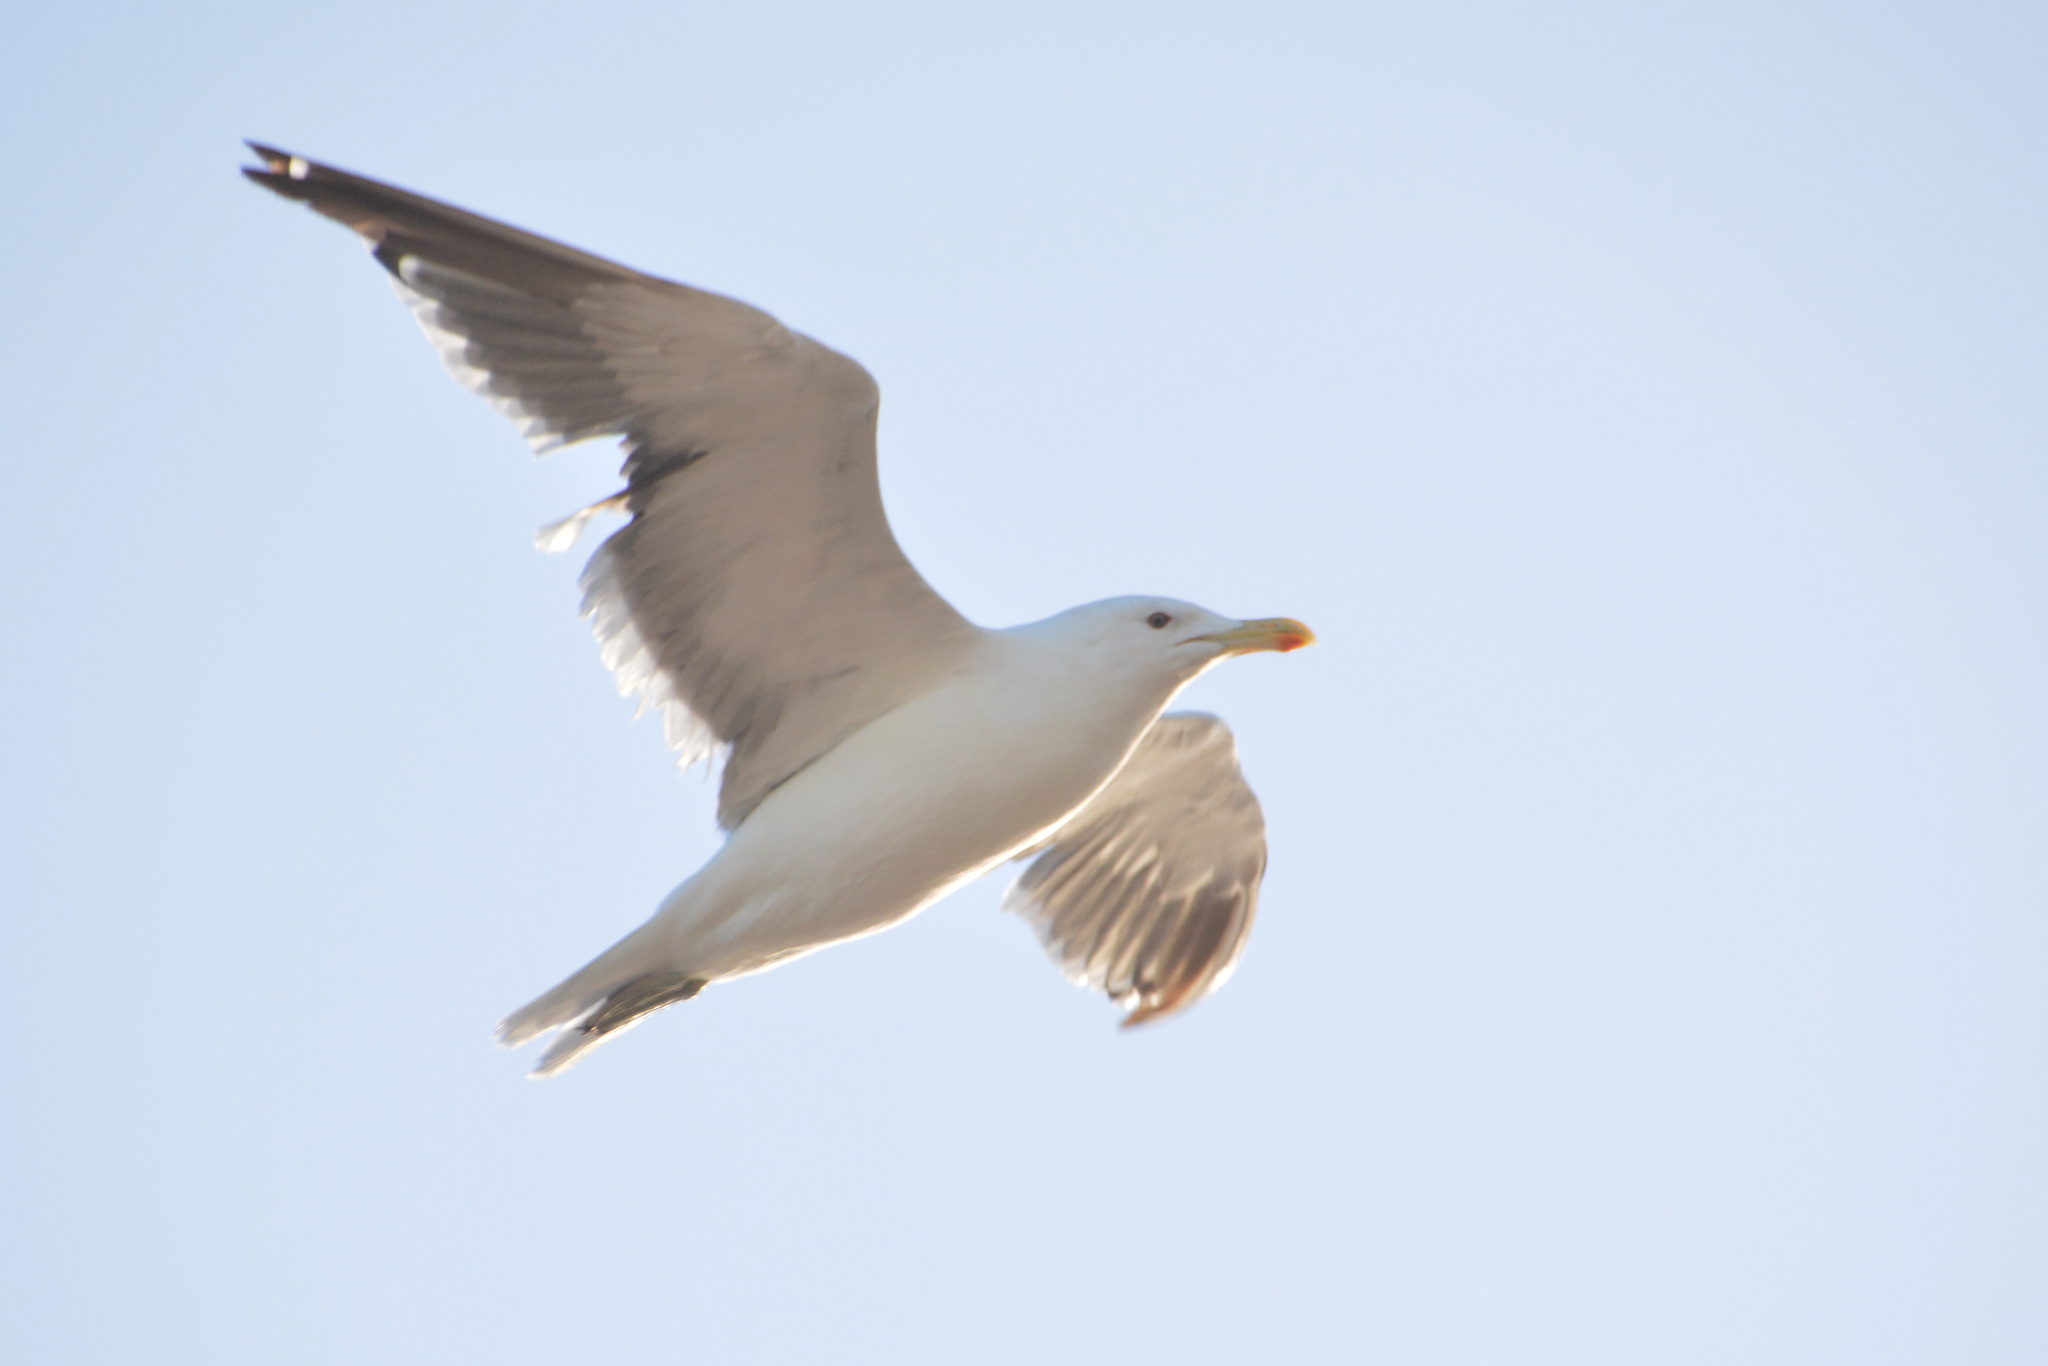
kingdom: Animalia
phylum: Chordata
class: Aves
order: Charadriiformes
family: Laridae
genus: Larus
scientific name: Larus dominicanus
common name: Kelp gull
